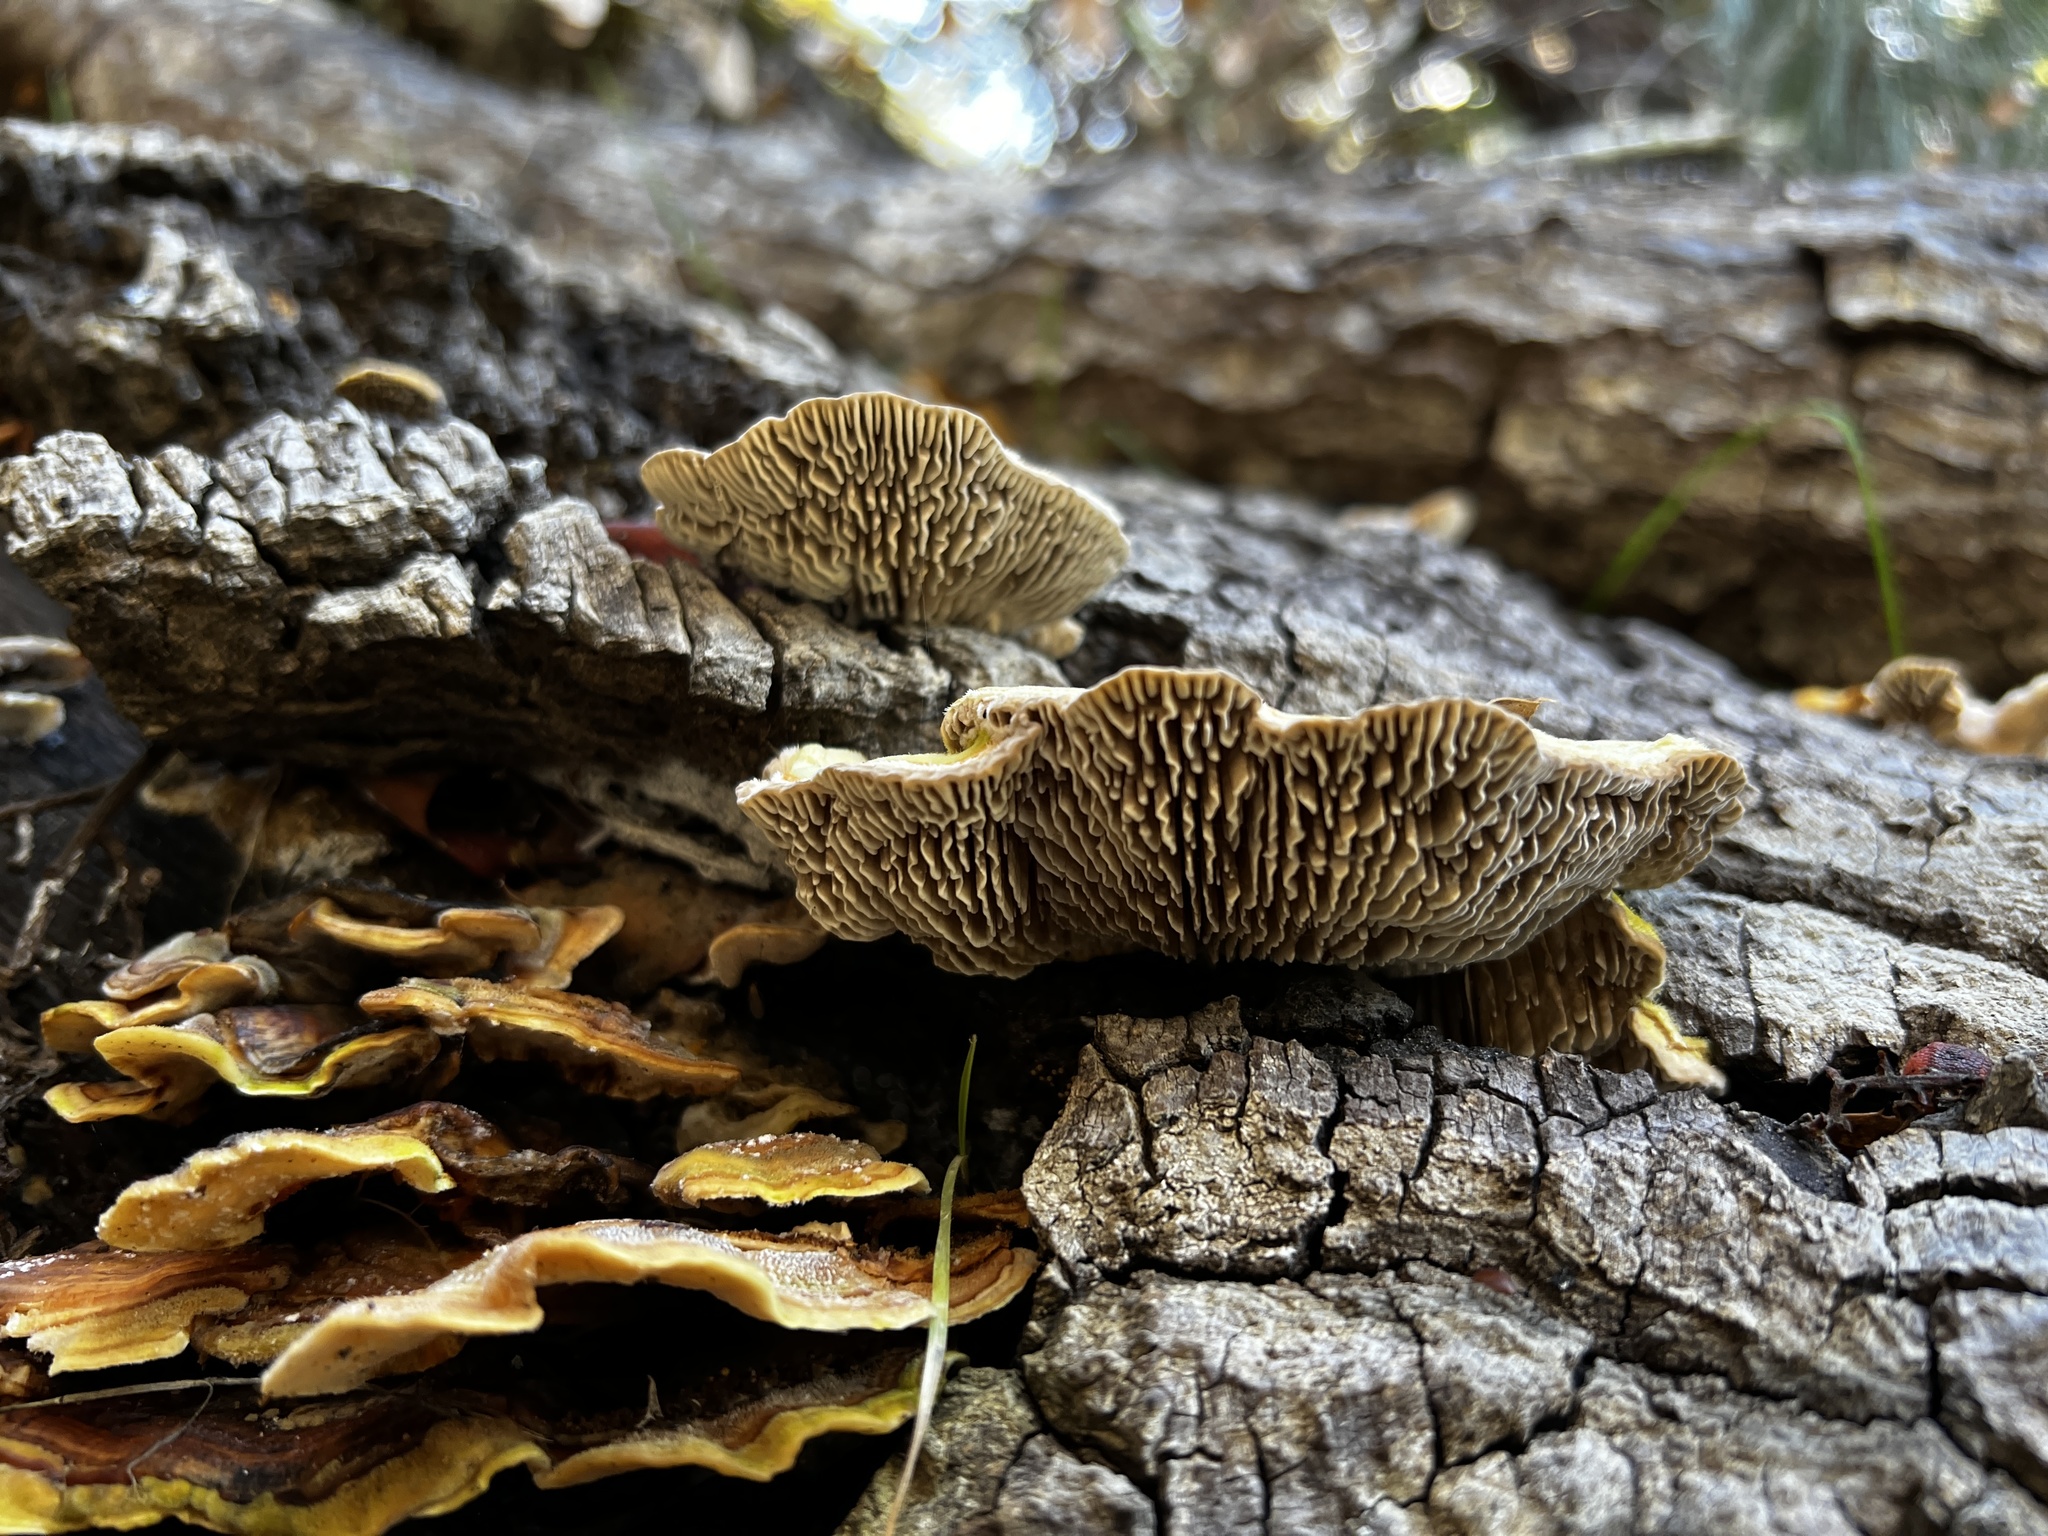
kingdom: Fungi
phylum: Basidiomycota
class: Agaricomycetes
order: Polyporales
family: Polyporaceae
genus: Lenzites
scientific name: Lenzites betulinus
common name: Birch mazegill
